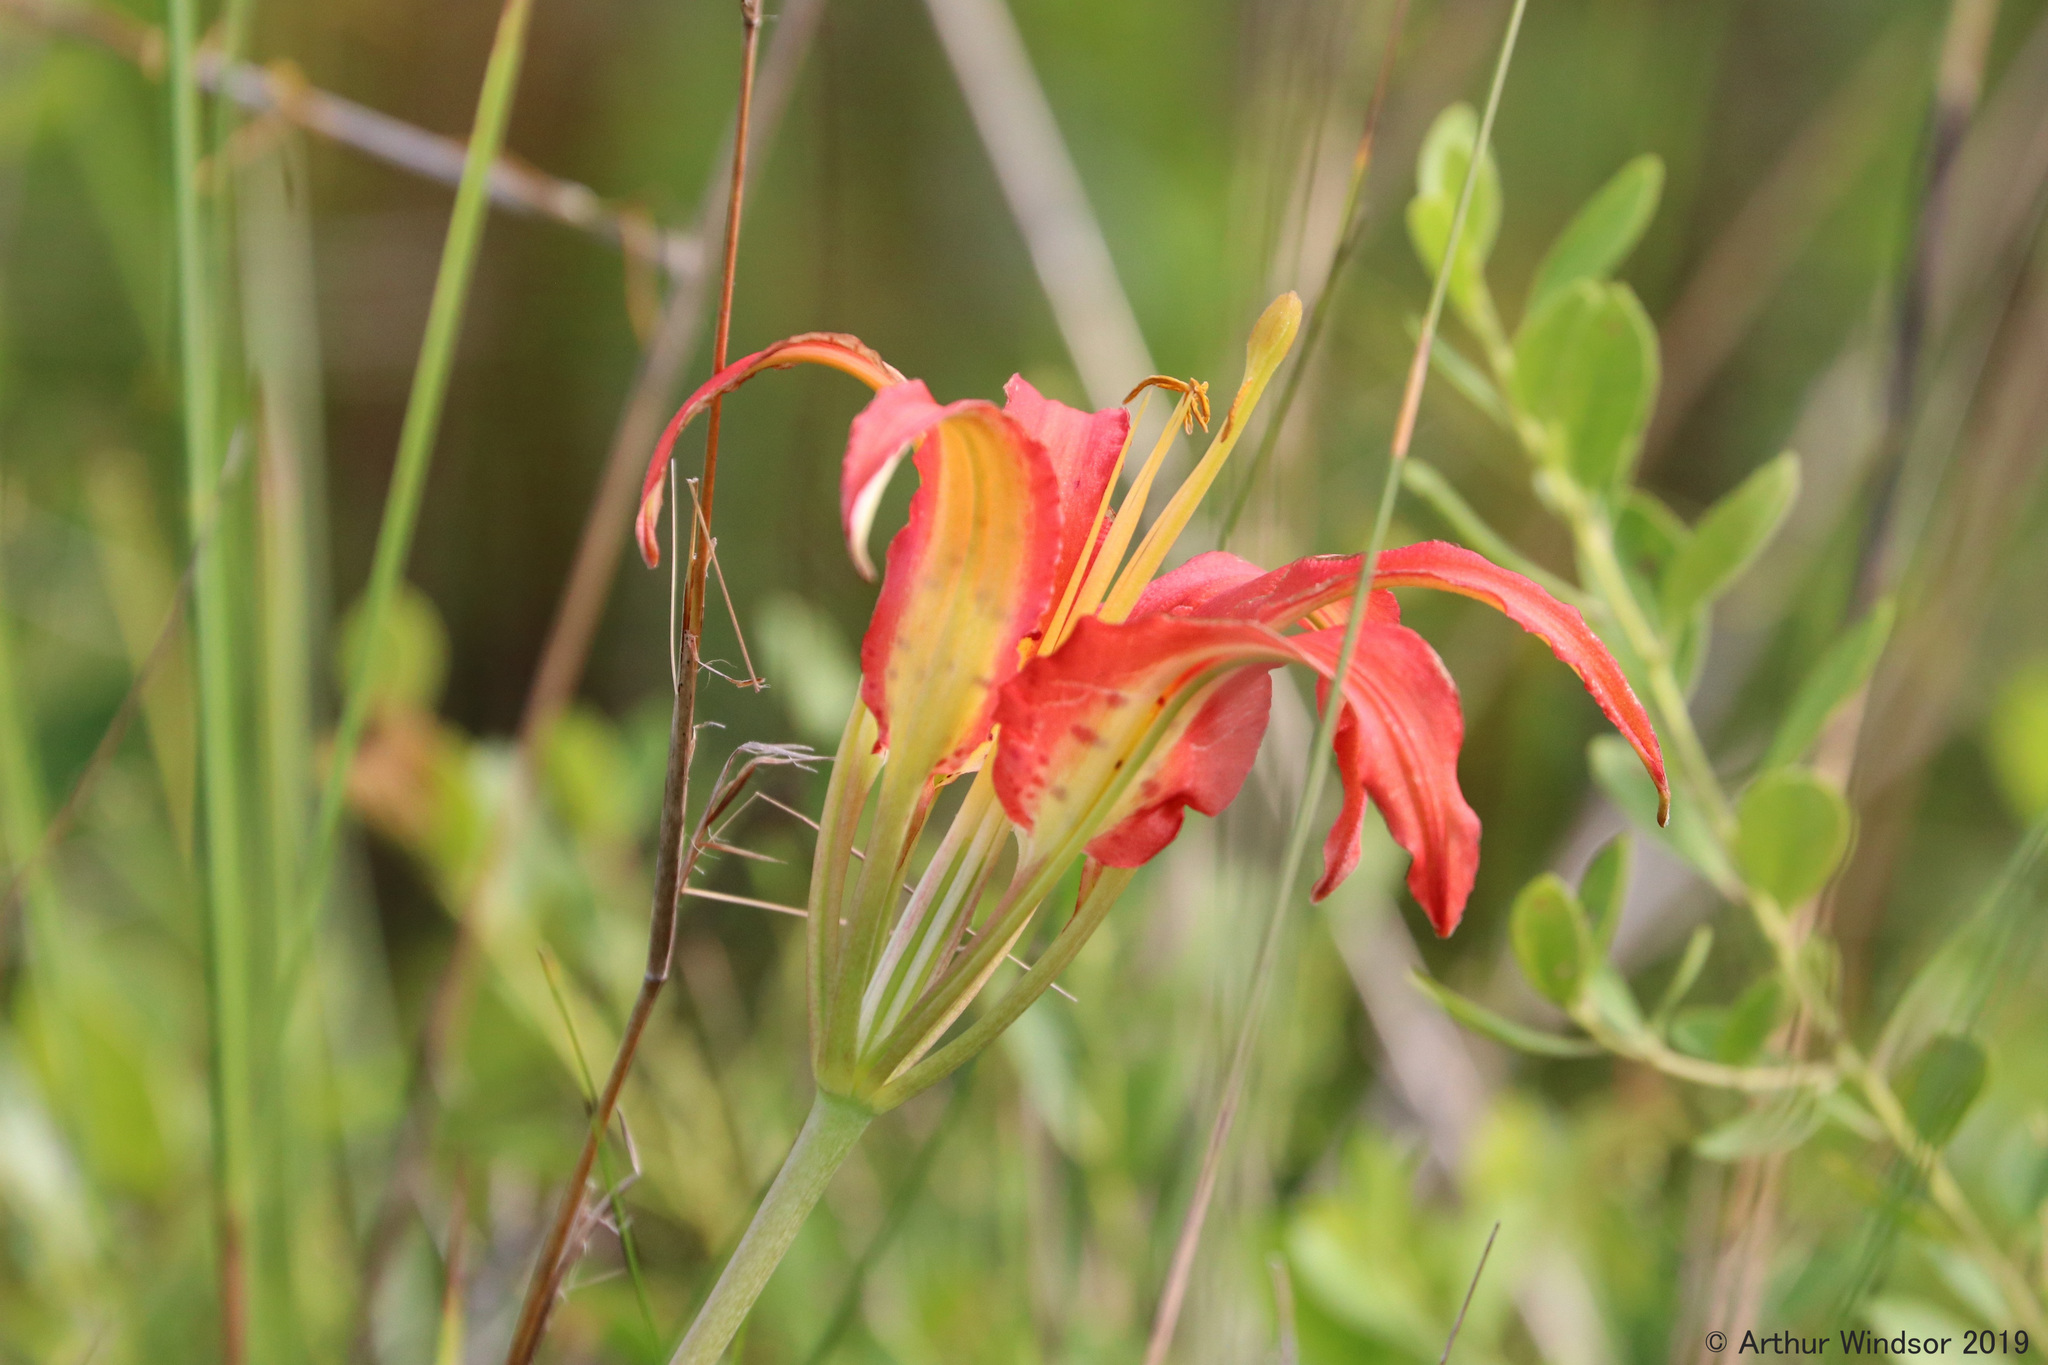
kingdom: Plantae
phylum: Tracheophyta
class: Liliopsida
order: Liliales
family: Liliaceae
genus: Lilium
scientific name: Lilium catesbaei
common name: Catesby's lily
